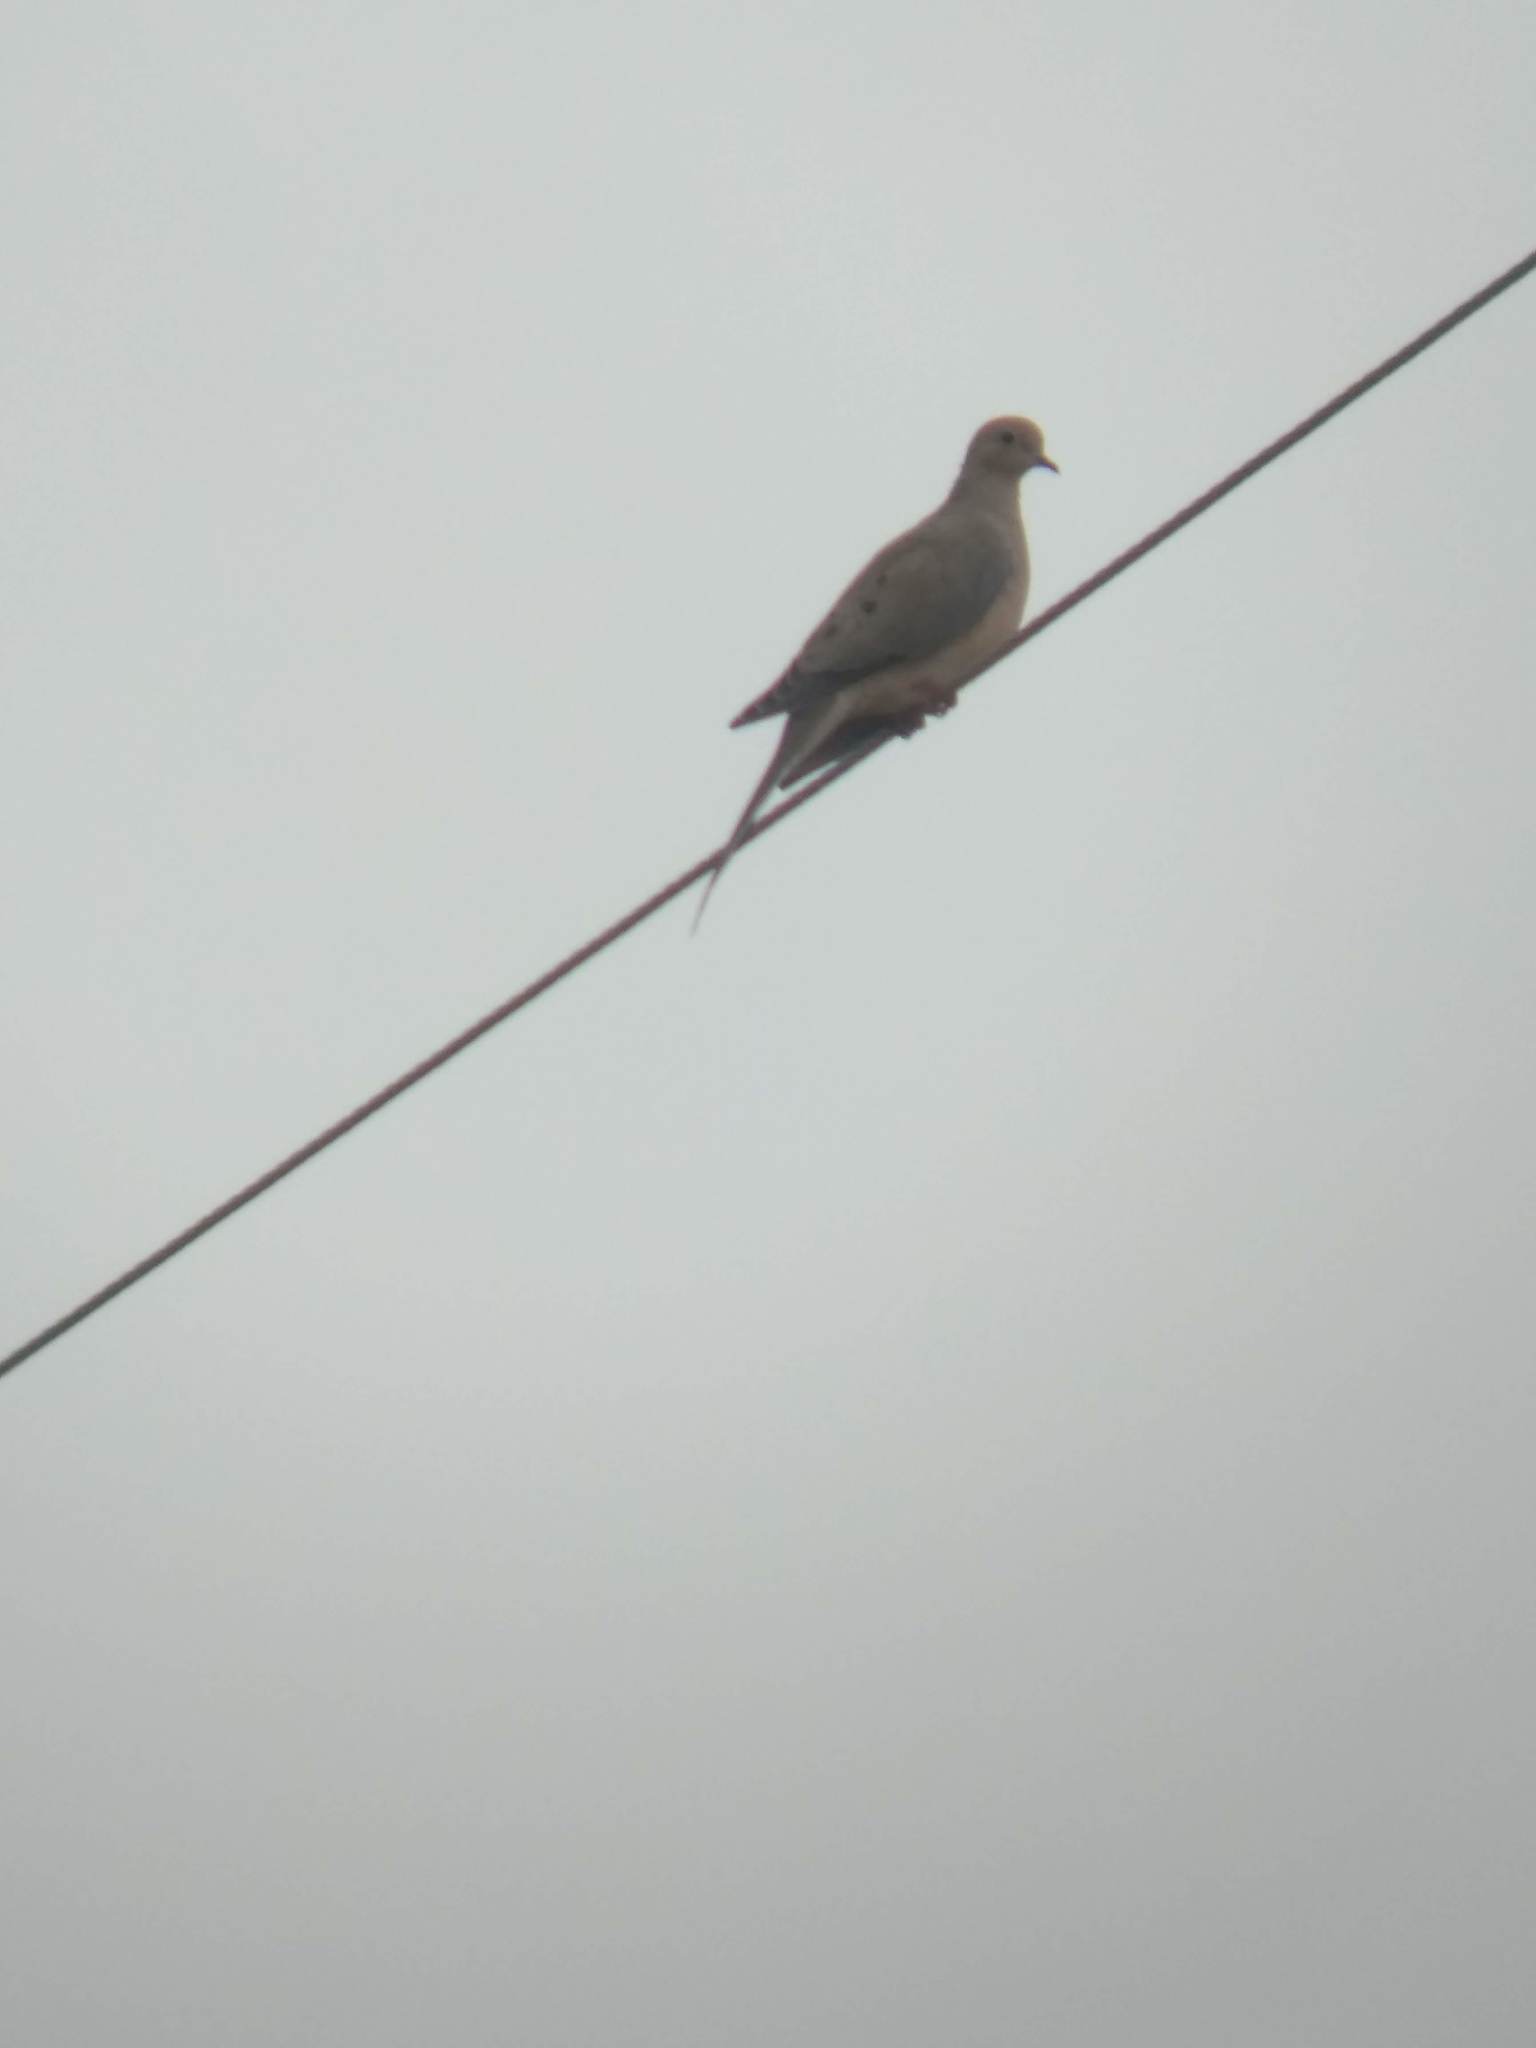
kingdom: Animalia
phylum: Chordata
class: Aves
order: Columbiformes
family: Columbidae
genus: Zenaida
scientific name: Zenaida macroura
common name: Mourning dove
